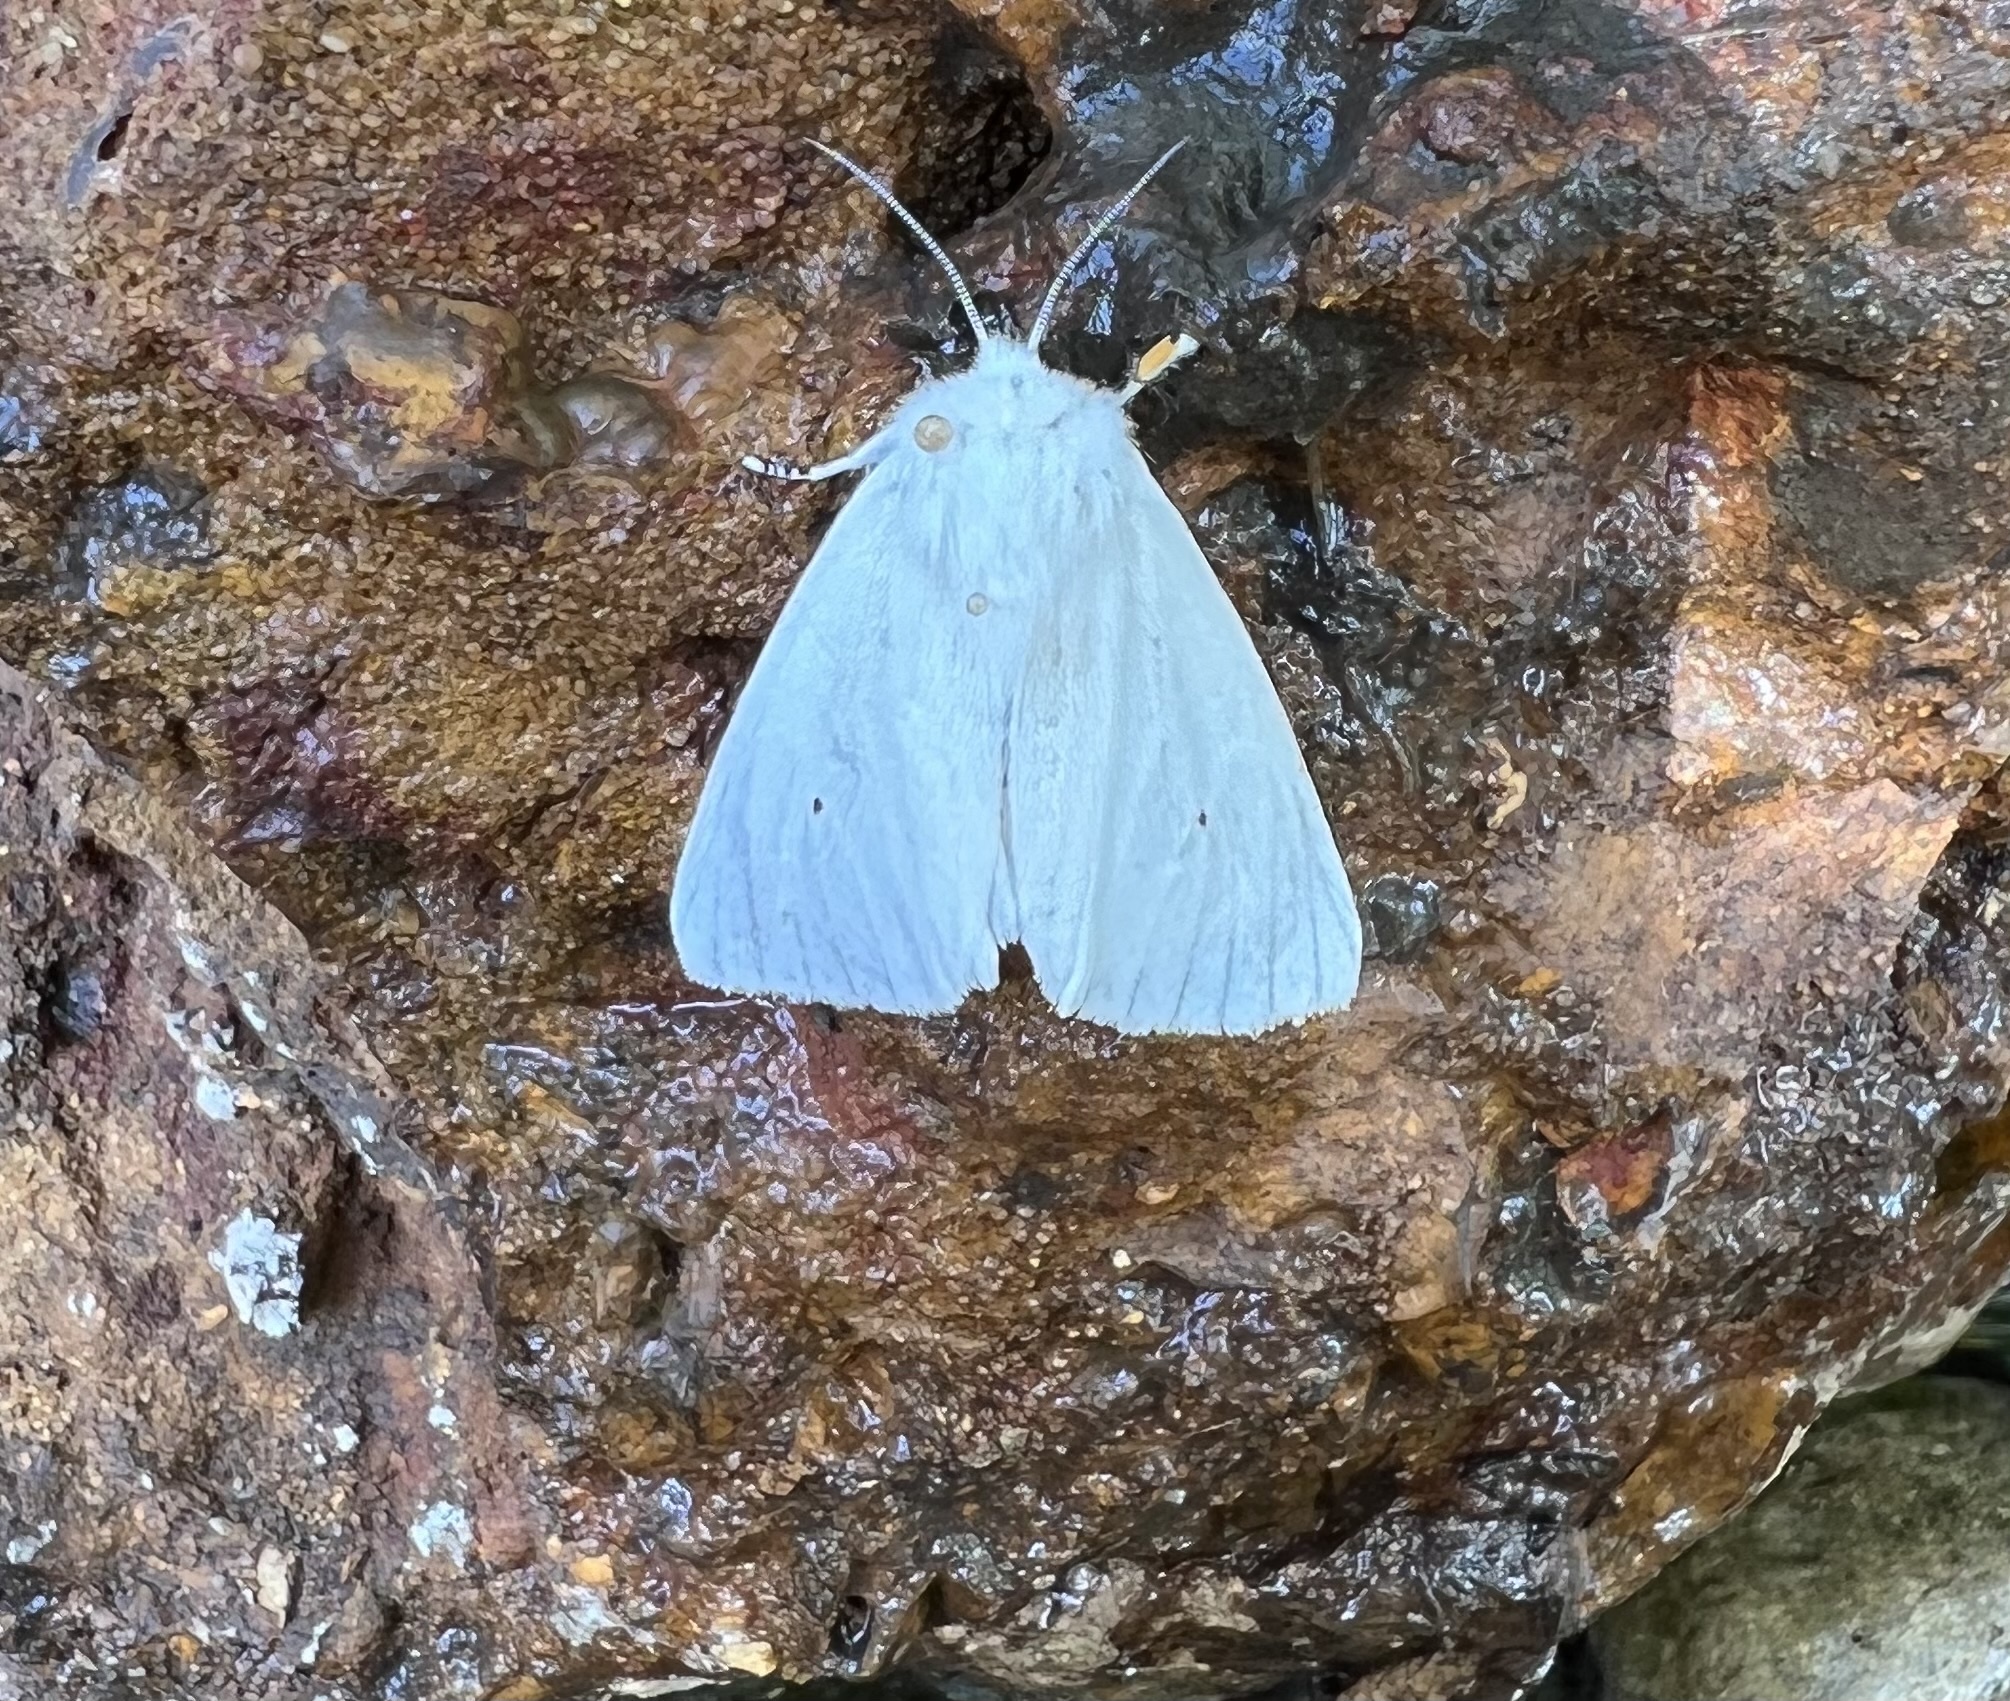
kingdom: Animalia
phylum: Arthropoda
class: Insecta
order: Lepidoptera
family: Erebidae
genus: Spilosoma
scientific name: Spilosoma virginica
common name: Virginia tiger moth
